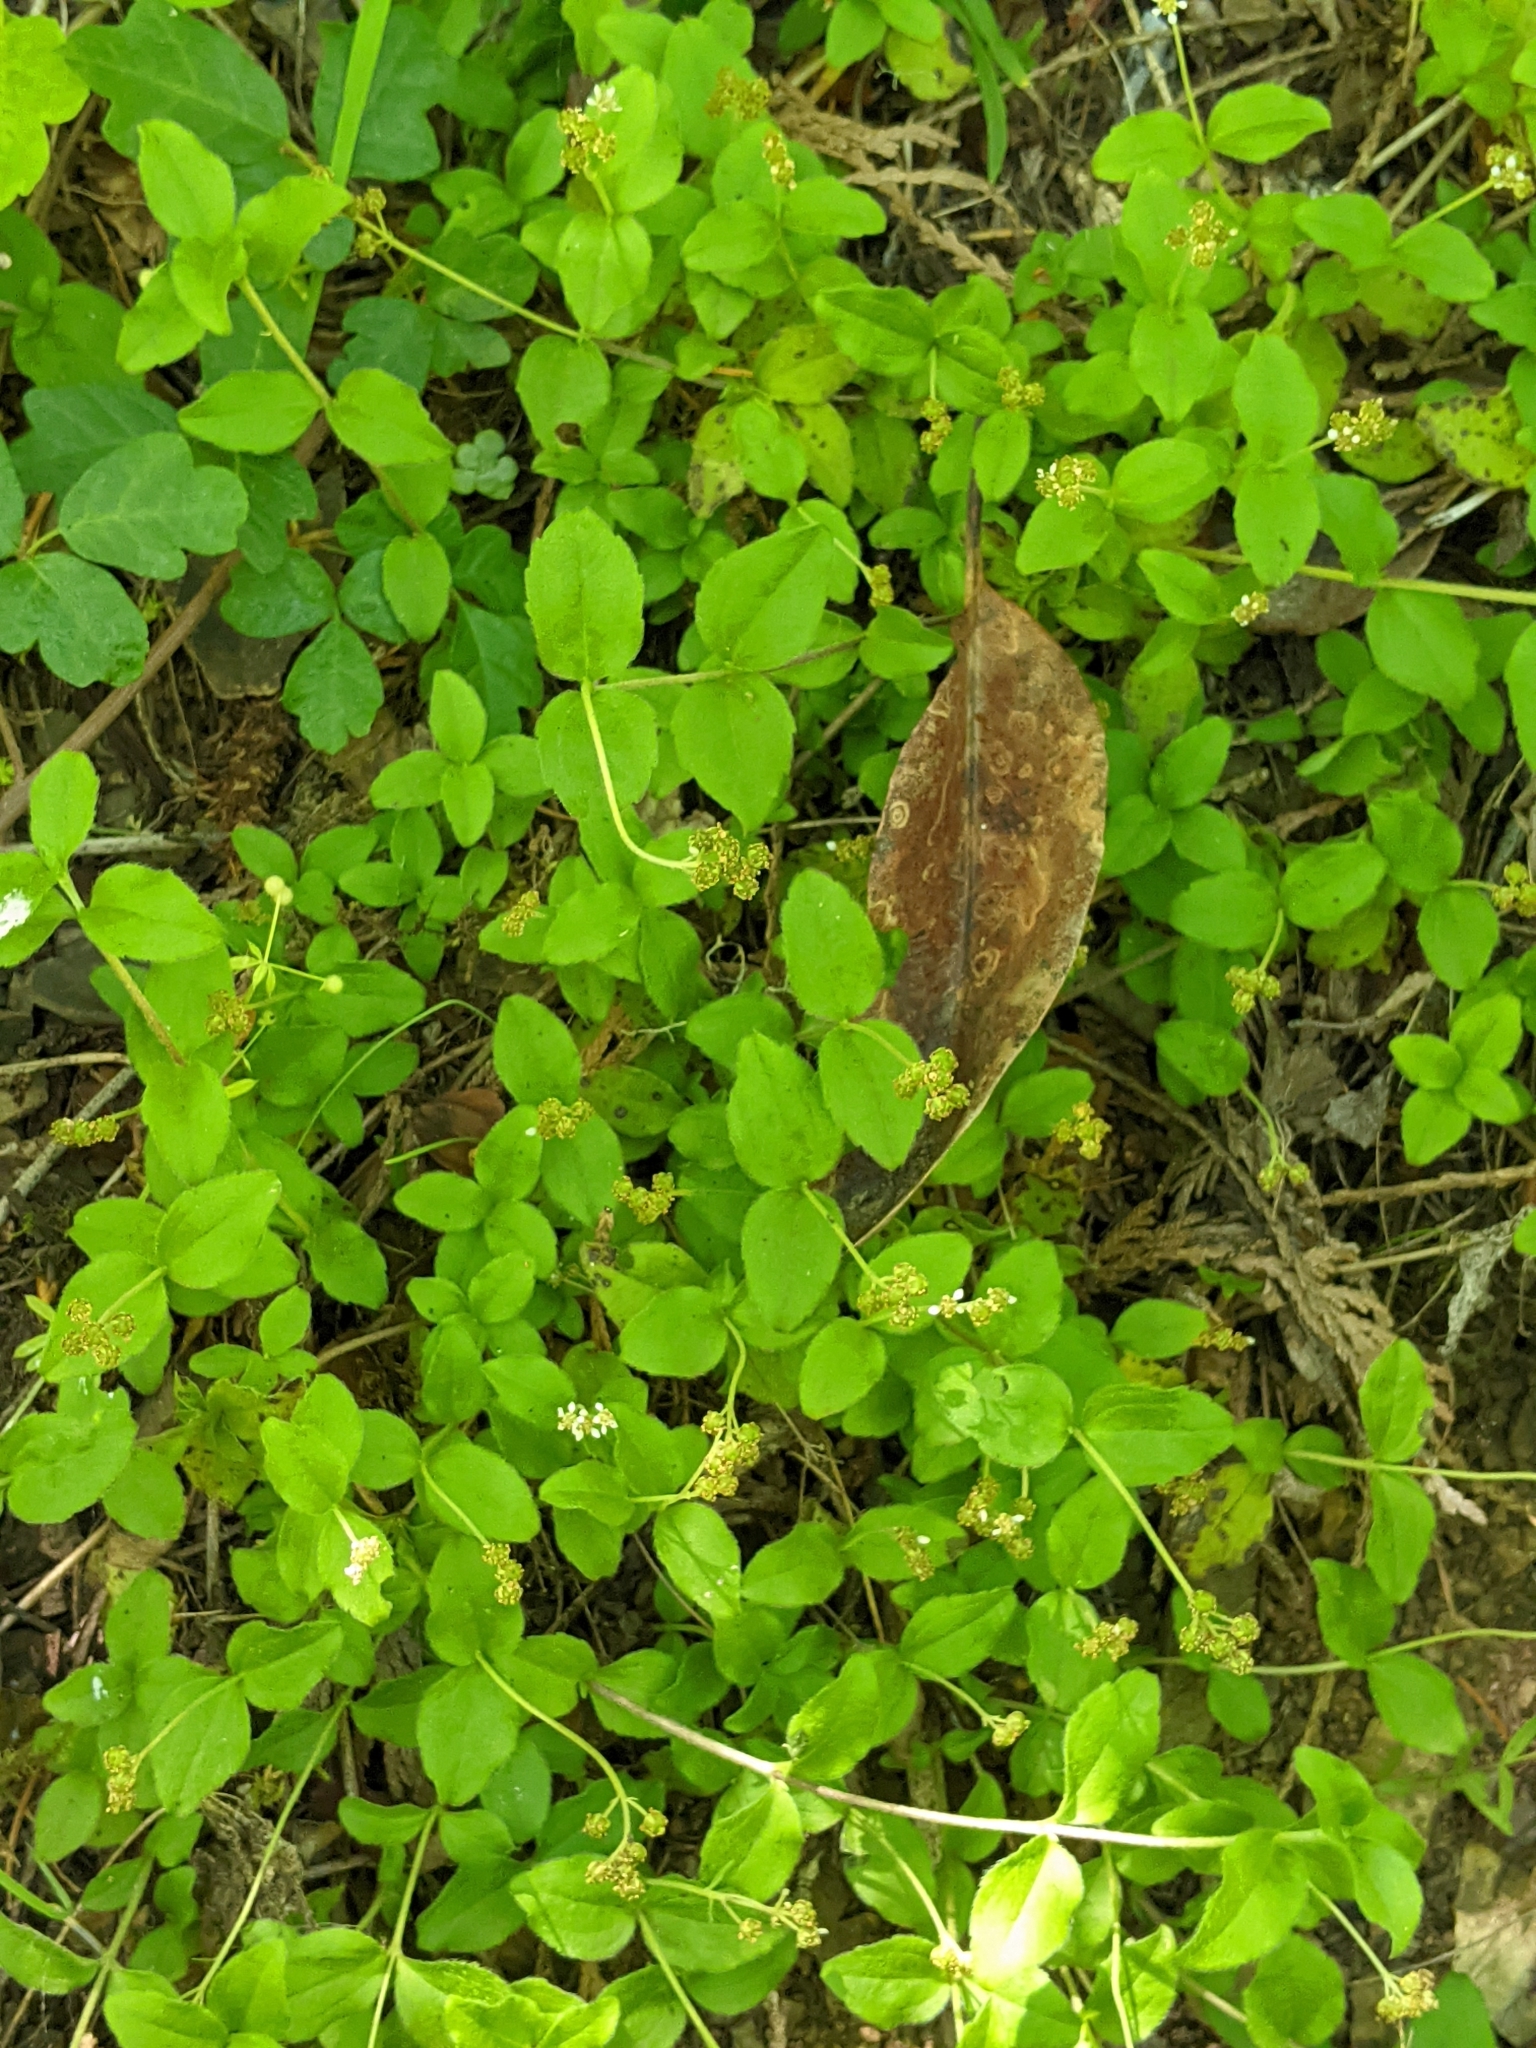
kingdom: Plantae
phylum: Tracheophyta
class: Magnoliopsida
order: Cornales
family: Hydrangeaceae
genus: Whipplea
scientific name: Whipplea modesta
